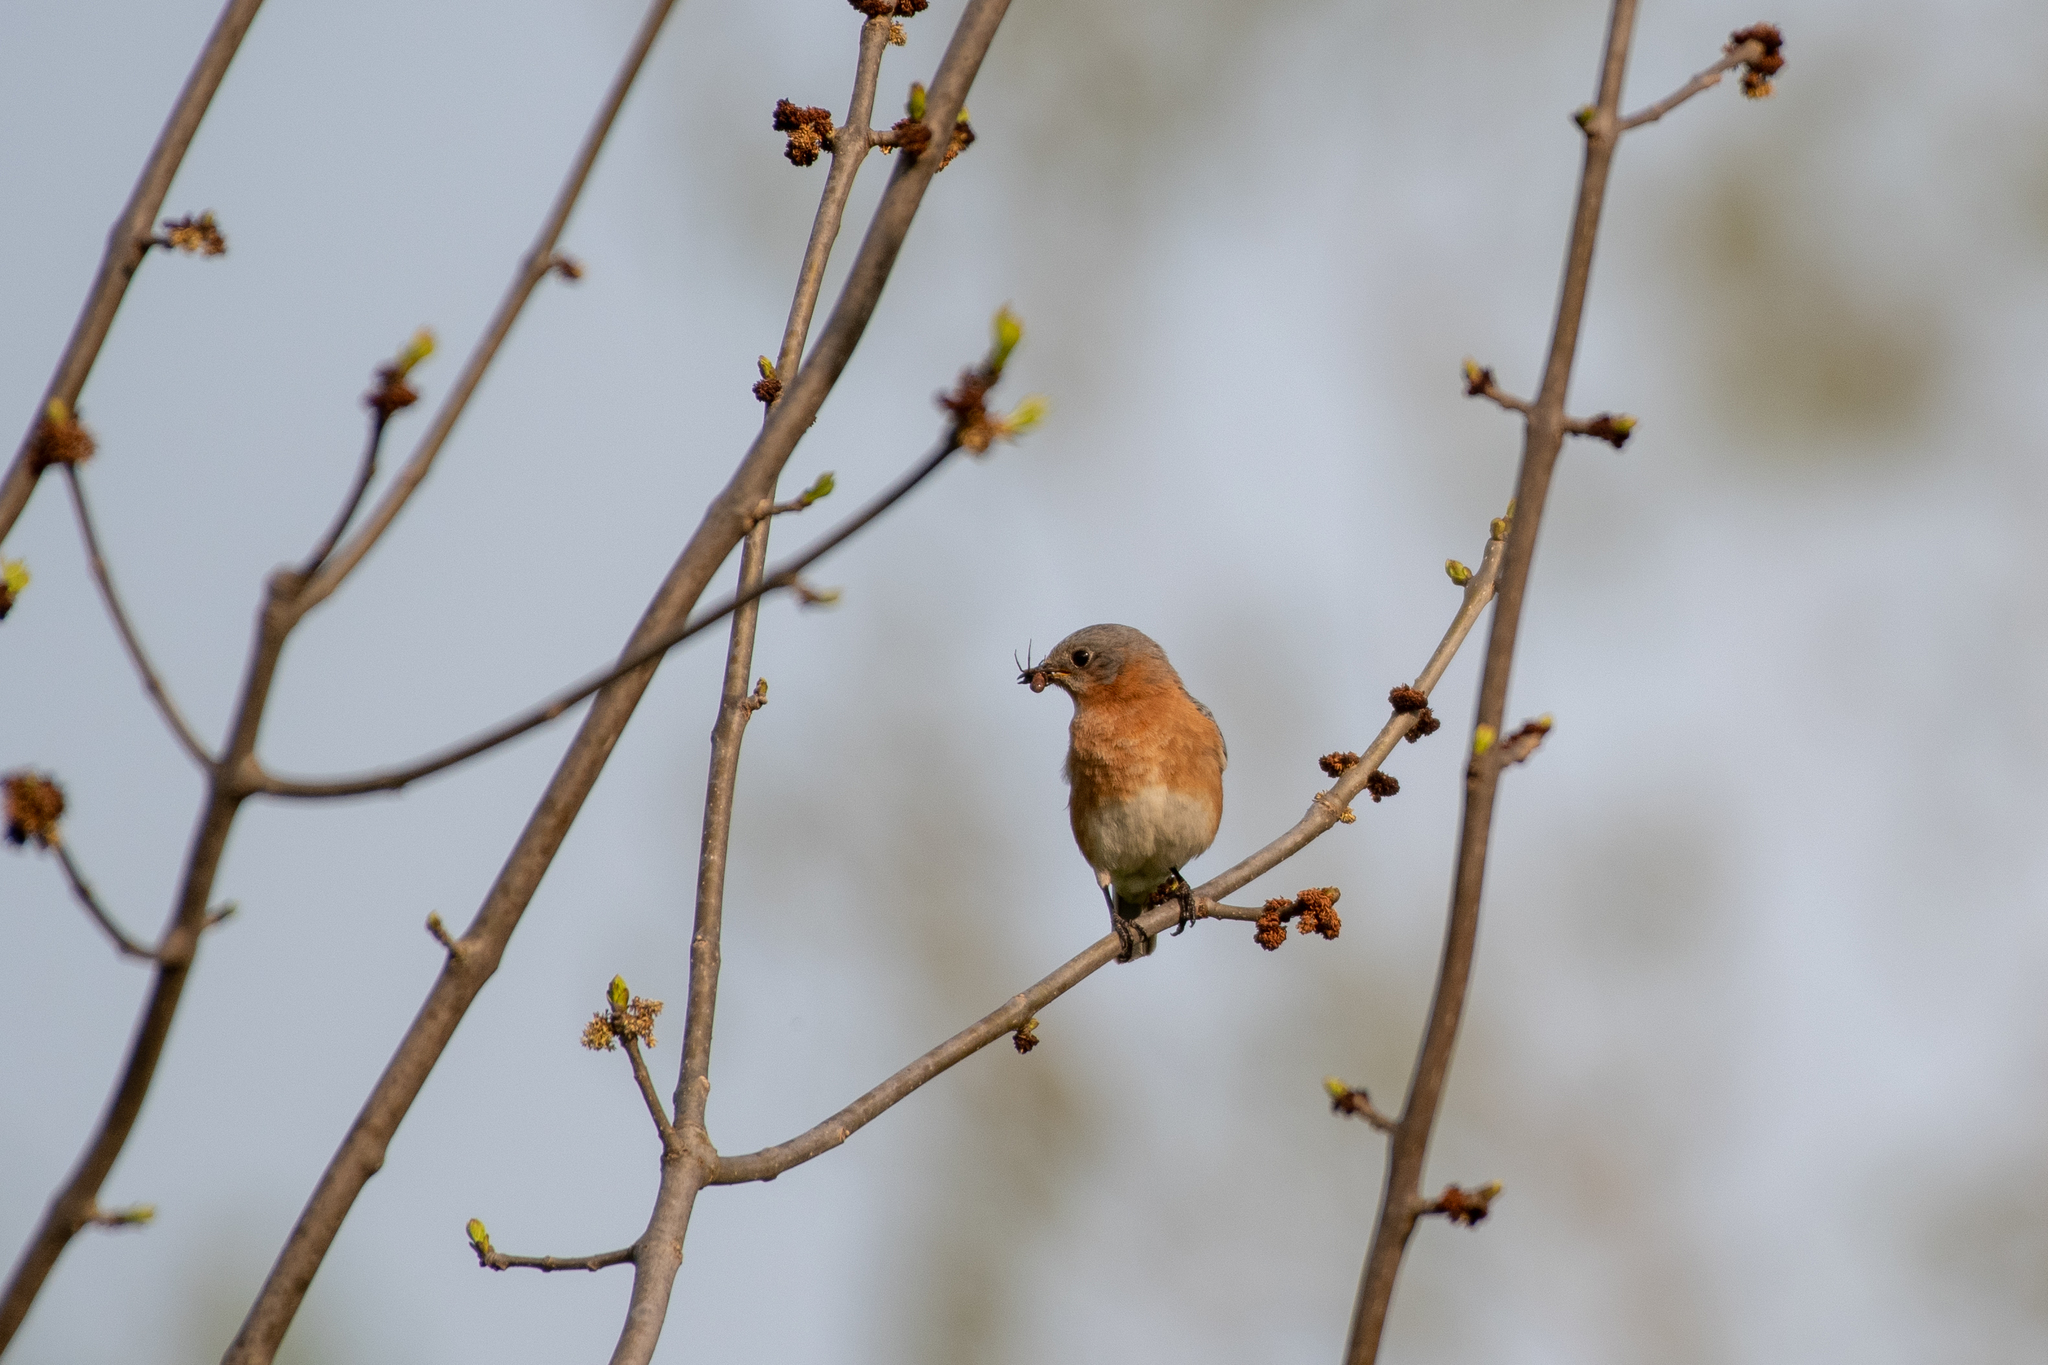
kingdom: Animalia
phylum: Chordata
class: Aves
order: Passeriformes
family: Turdidae
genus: Sialia
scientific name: Sialia sialis
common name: Eastern bluebird
